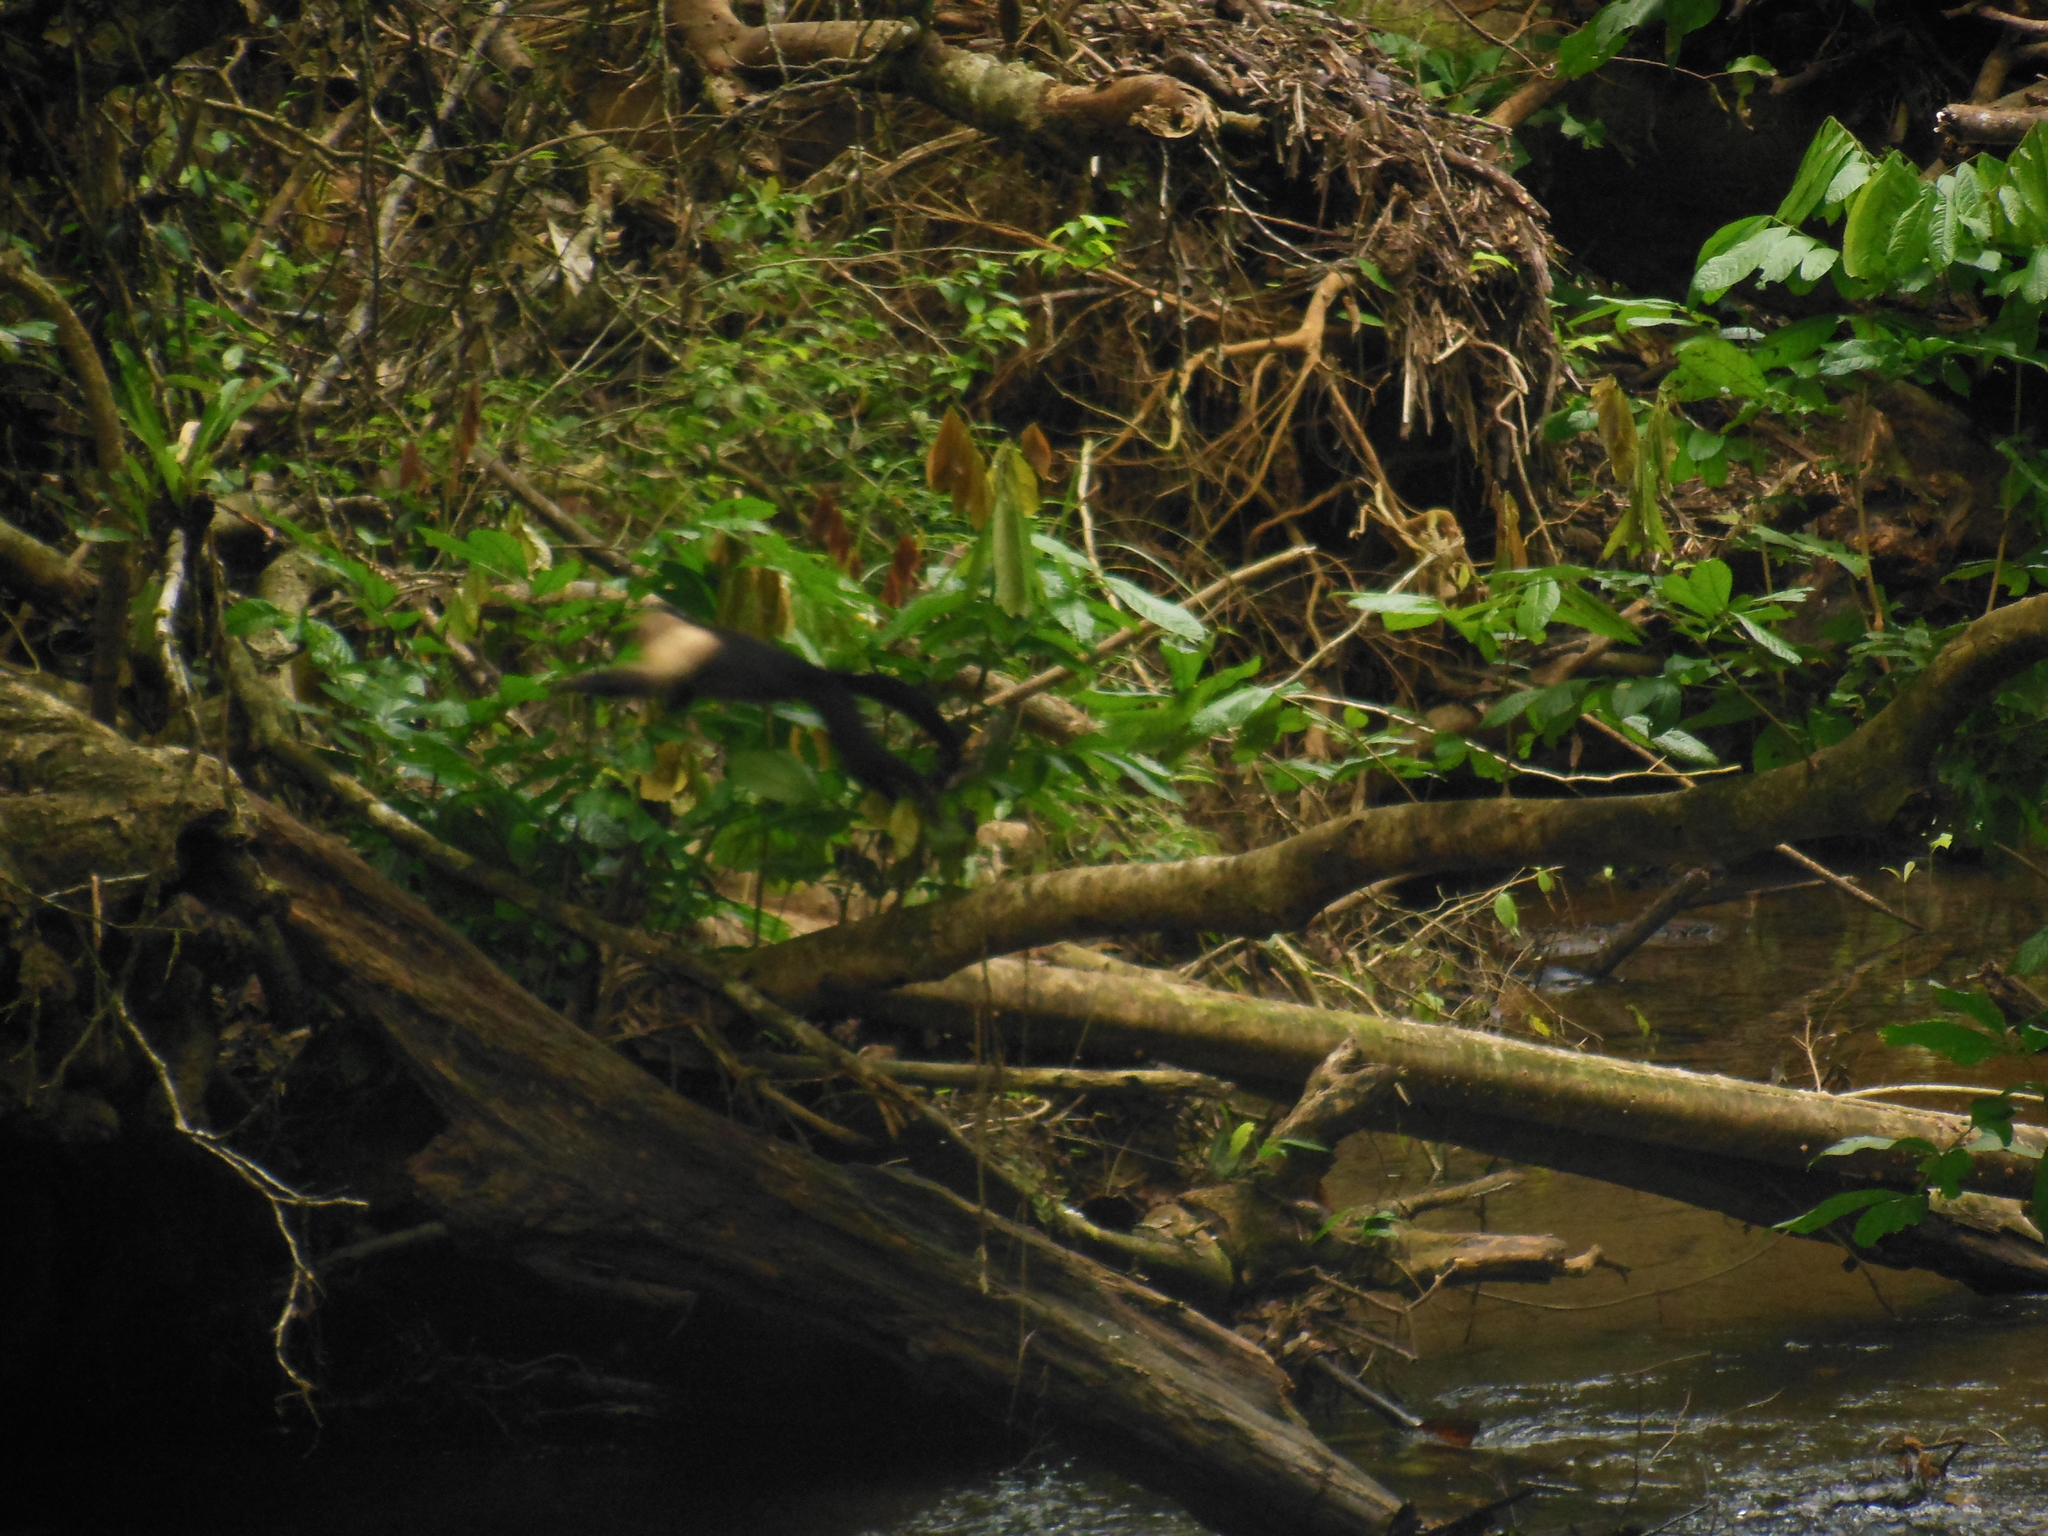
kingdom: Animalia
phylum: Chordata
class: Mammalia
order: Primates
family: Cebidae
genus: Cebus
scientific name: Cebus capucinus
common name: White-headed capuchin
